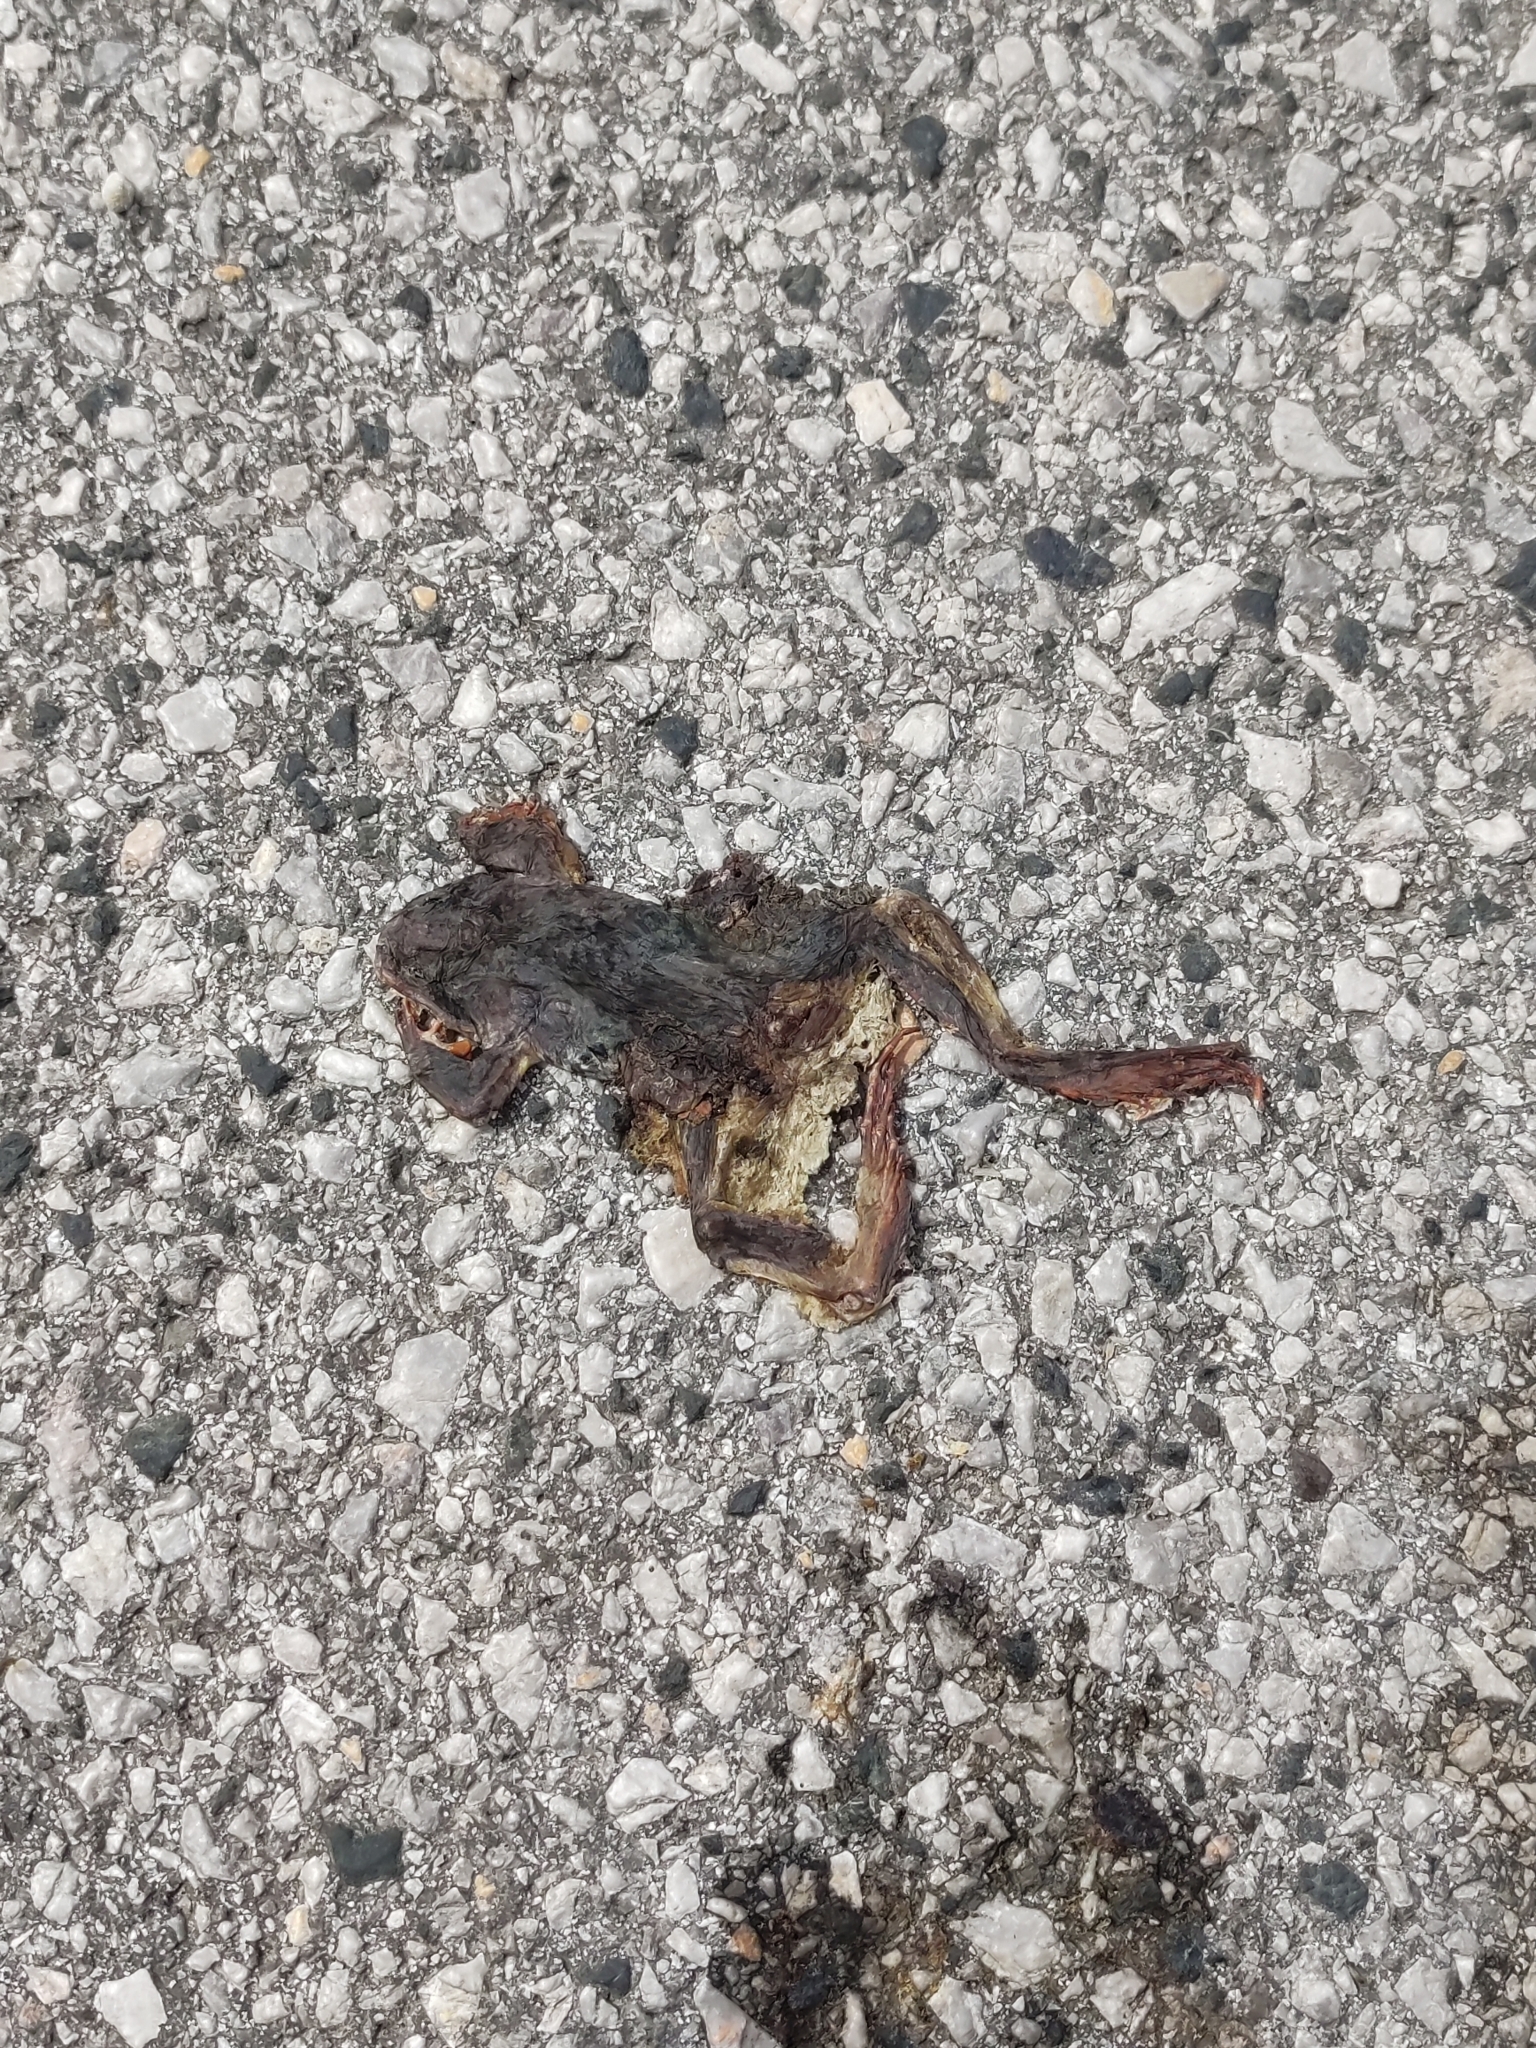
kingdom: Animalia
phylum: Chordata
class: Amphibia
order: Anura
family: Bufonidae
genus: Bufo
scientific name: Bufo bufo
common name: Common toad
